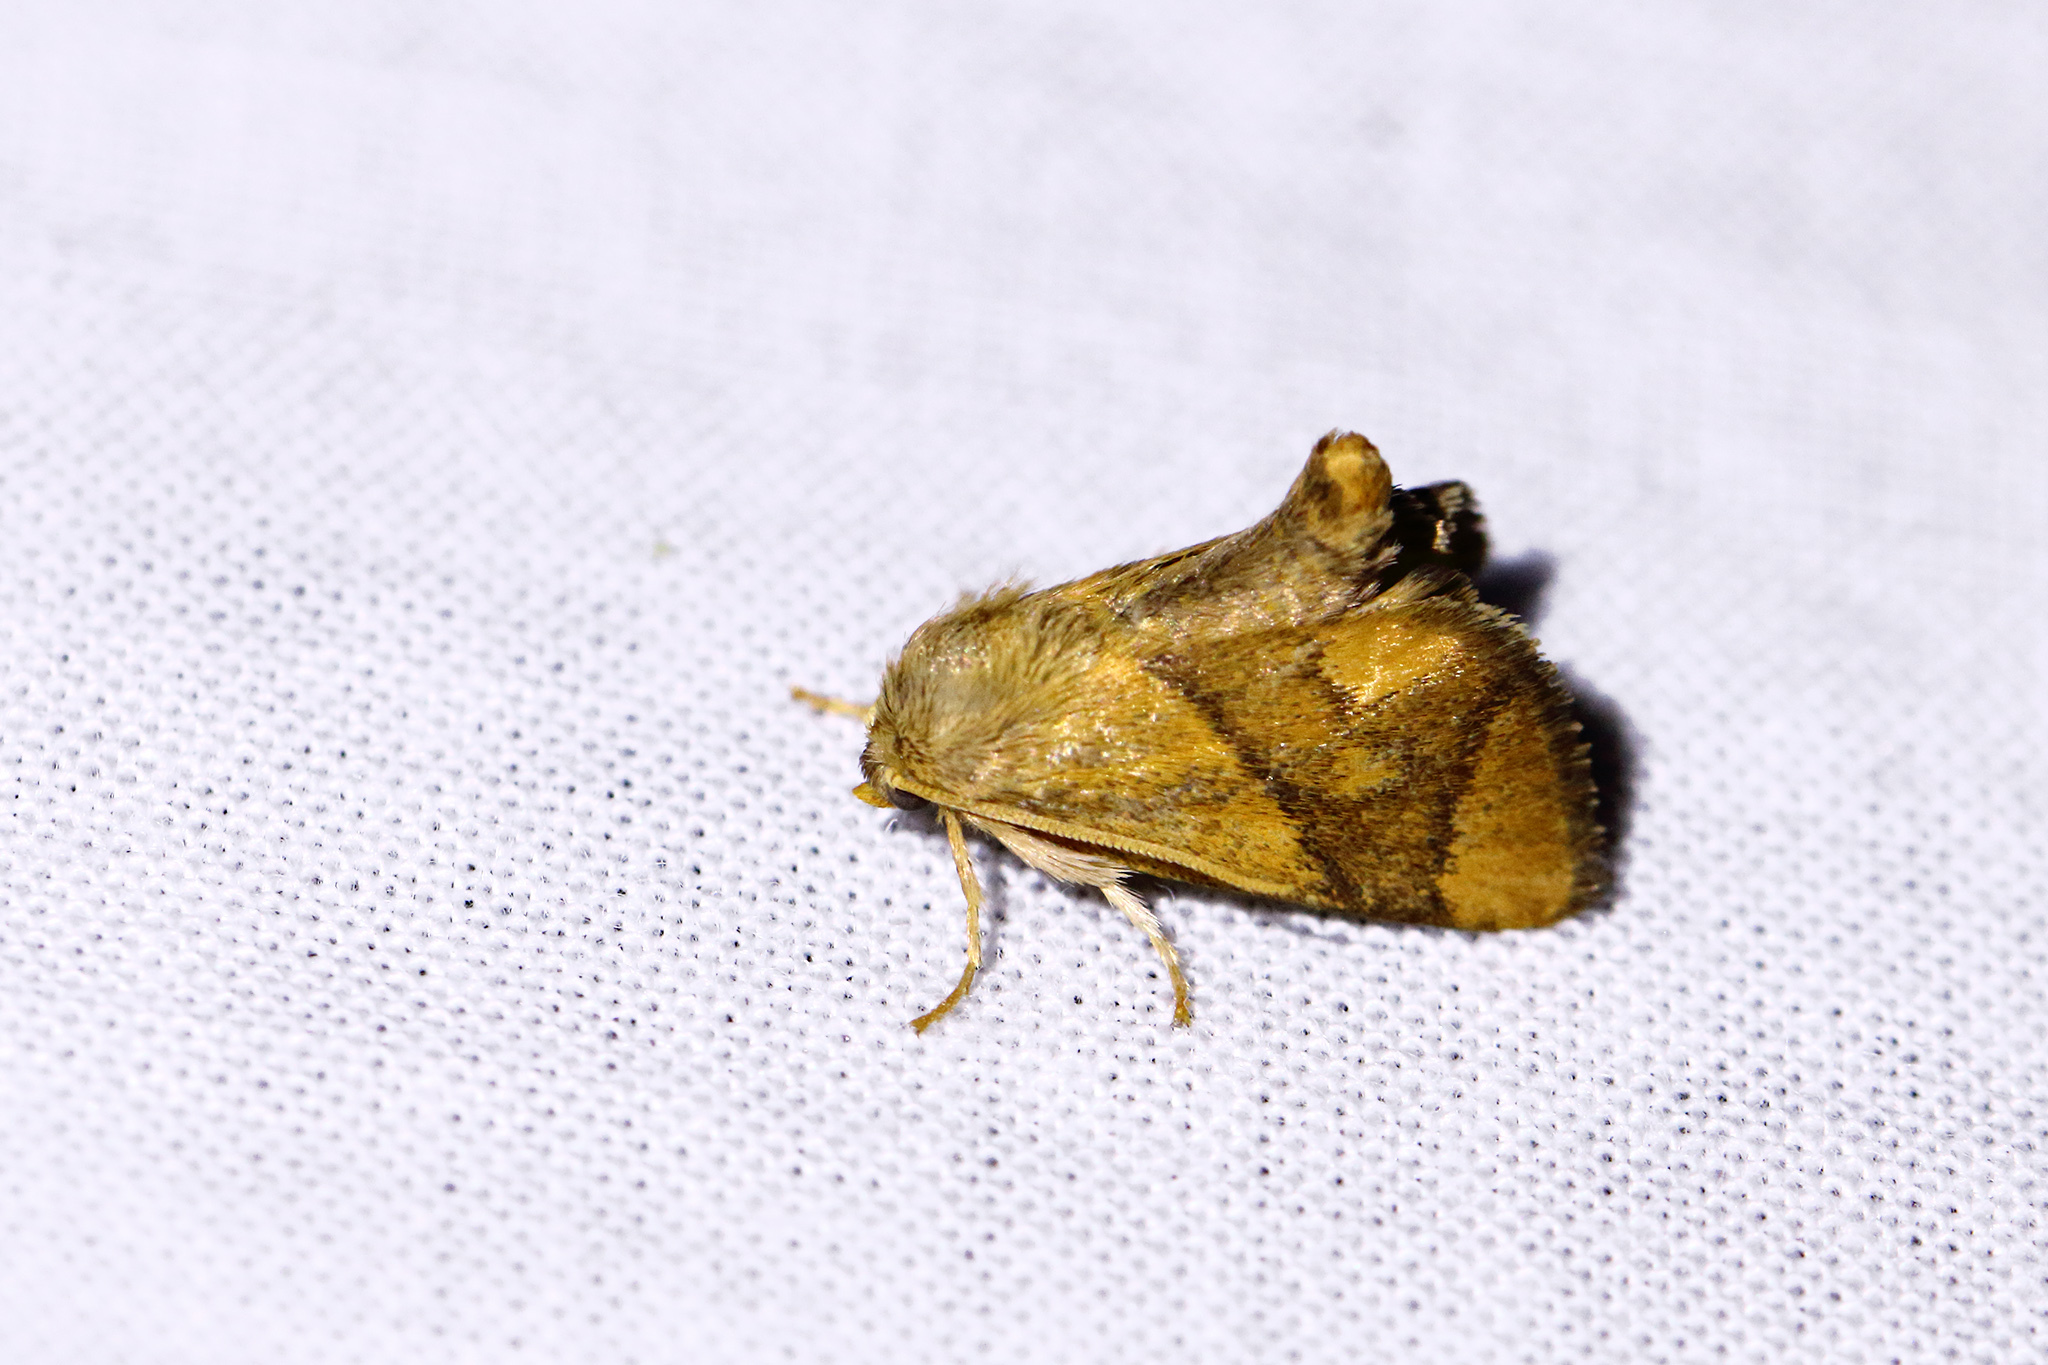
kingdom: Animalia
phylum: Arthropoda
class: Insecta
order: Lepidoptera
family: Limacodidae
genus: Apoda
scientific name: Apoda limacodes
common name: Festoon
